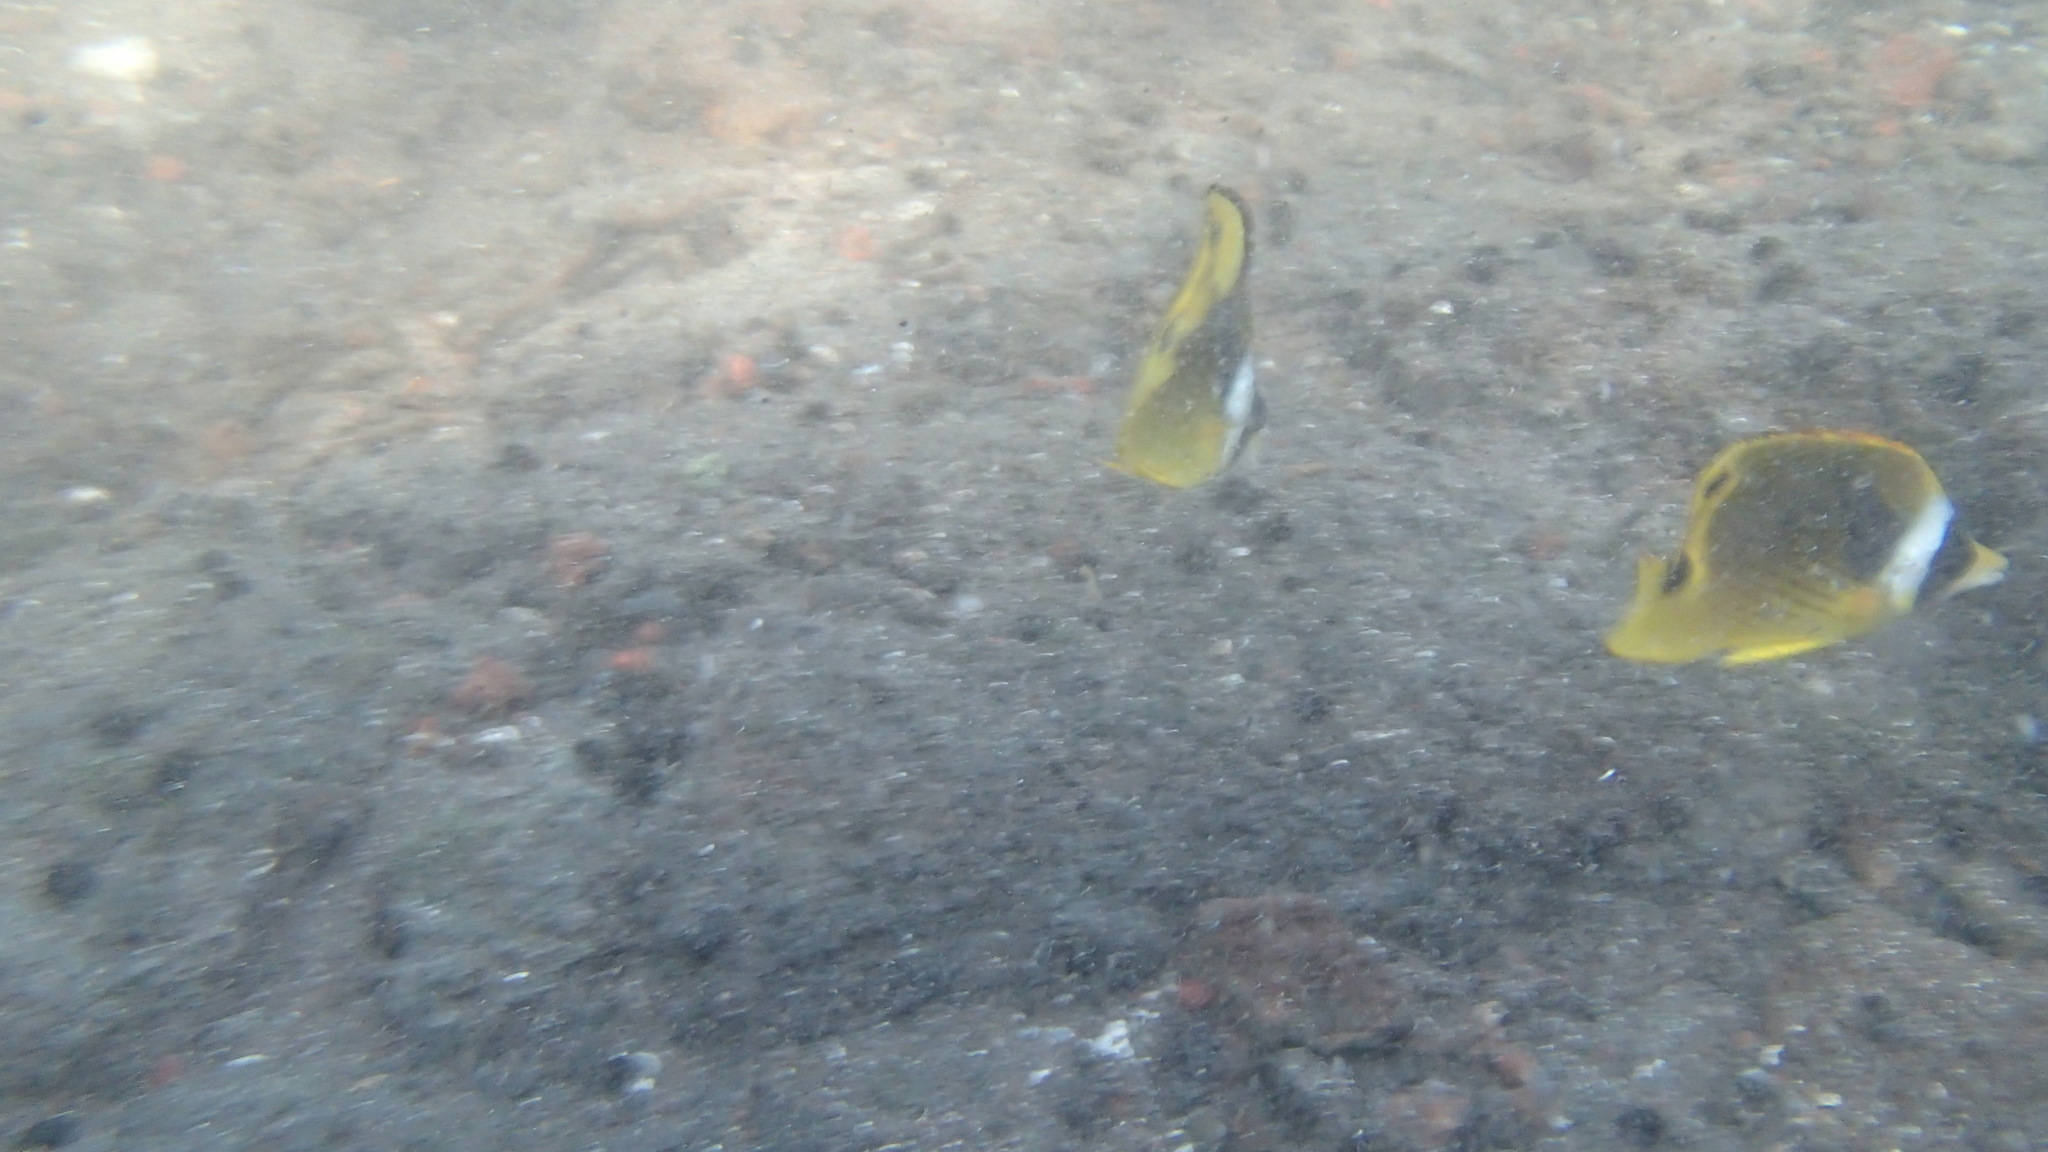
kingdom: Animalia
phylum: Chordata
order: Perciformes
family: Chaetodontidae
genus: Chaetodon
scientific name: Chaetodon lunula
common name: Raccoon butterflyfish
